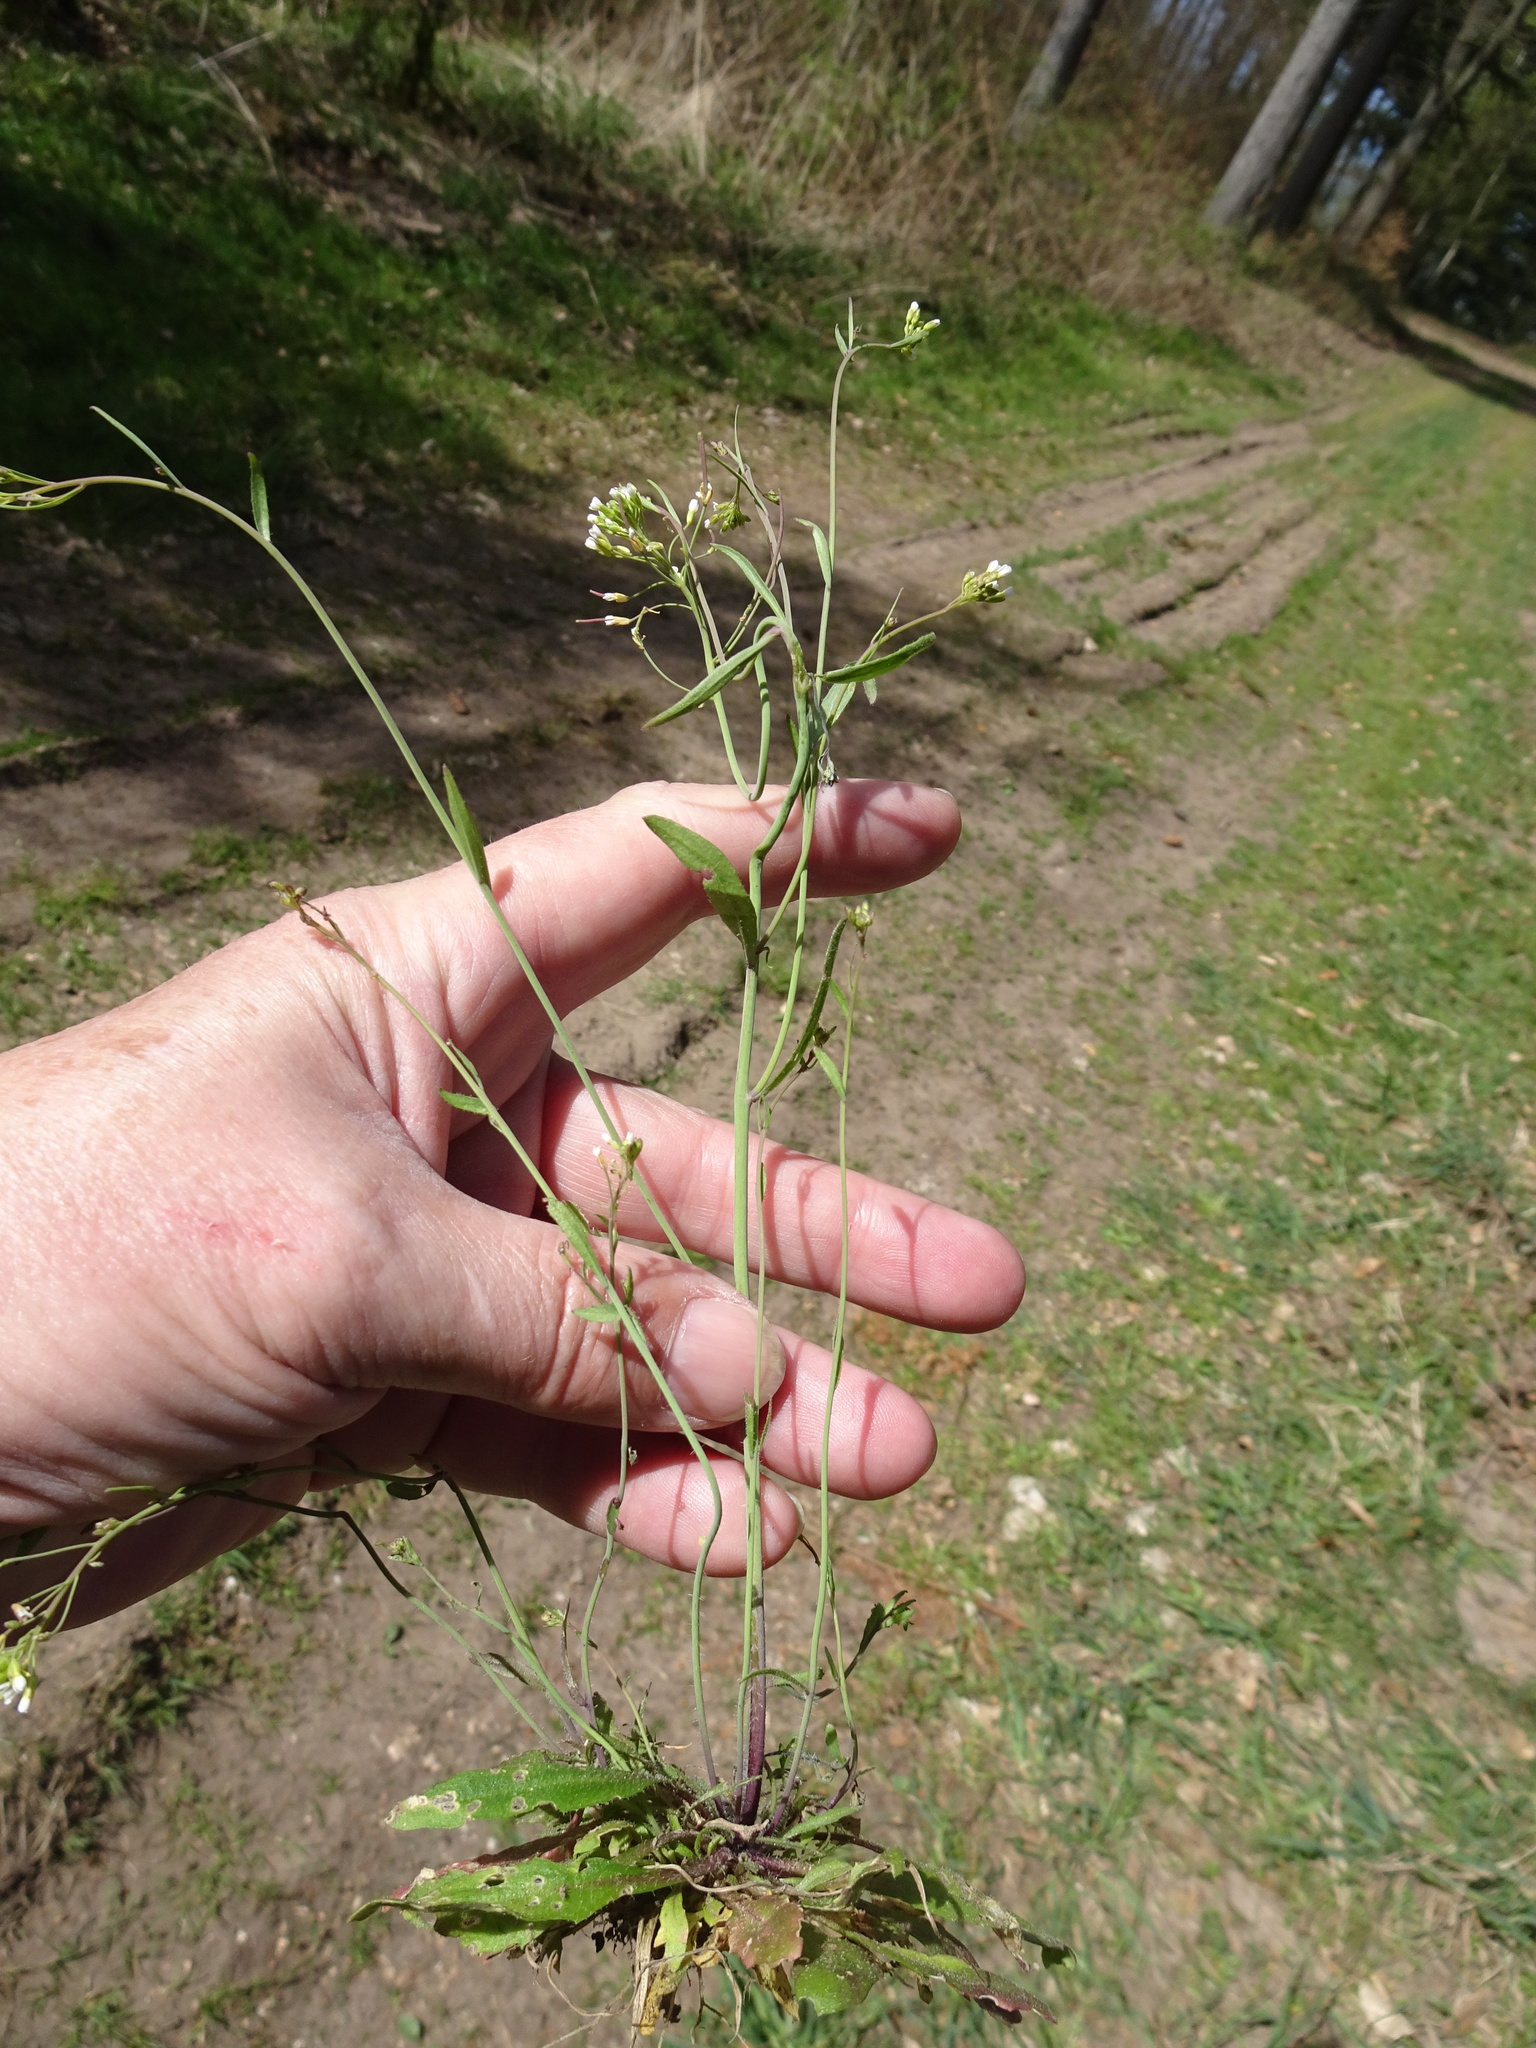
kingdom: Plantae
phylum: Tracheophyta
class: Magnoliopsida
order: Brassicales
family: Brassicaceae
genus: Arabidopsis
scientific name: Arabidopsis thaliana
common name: Thale cress
